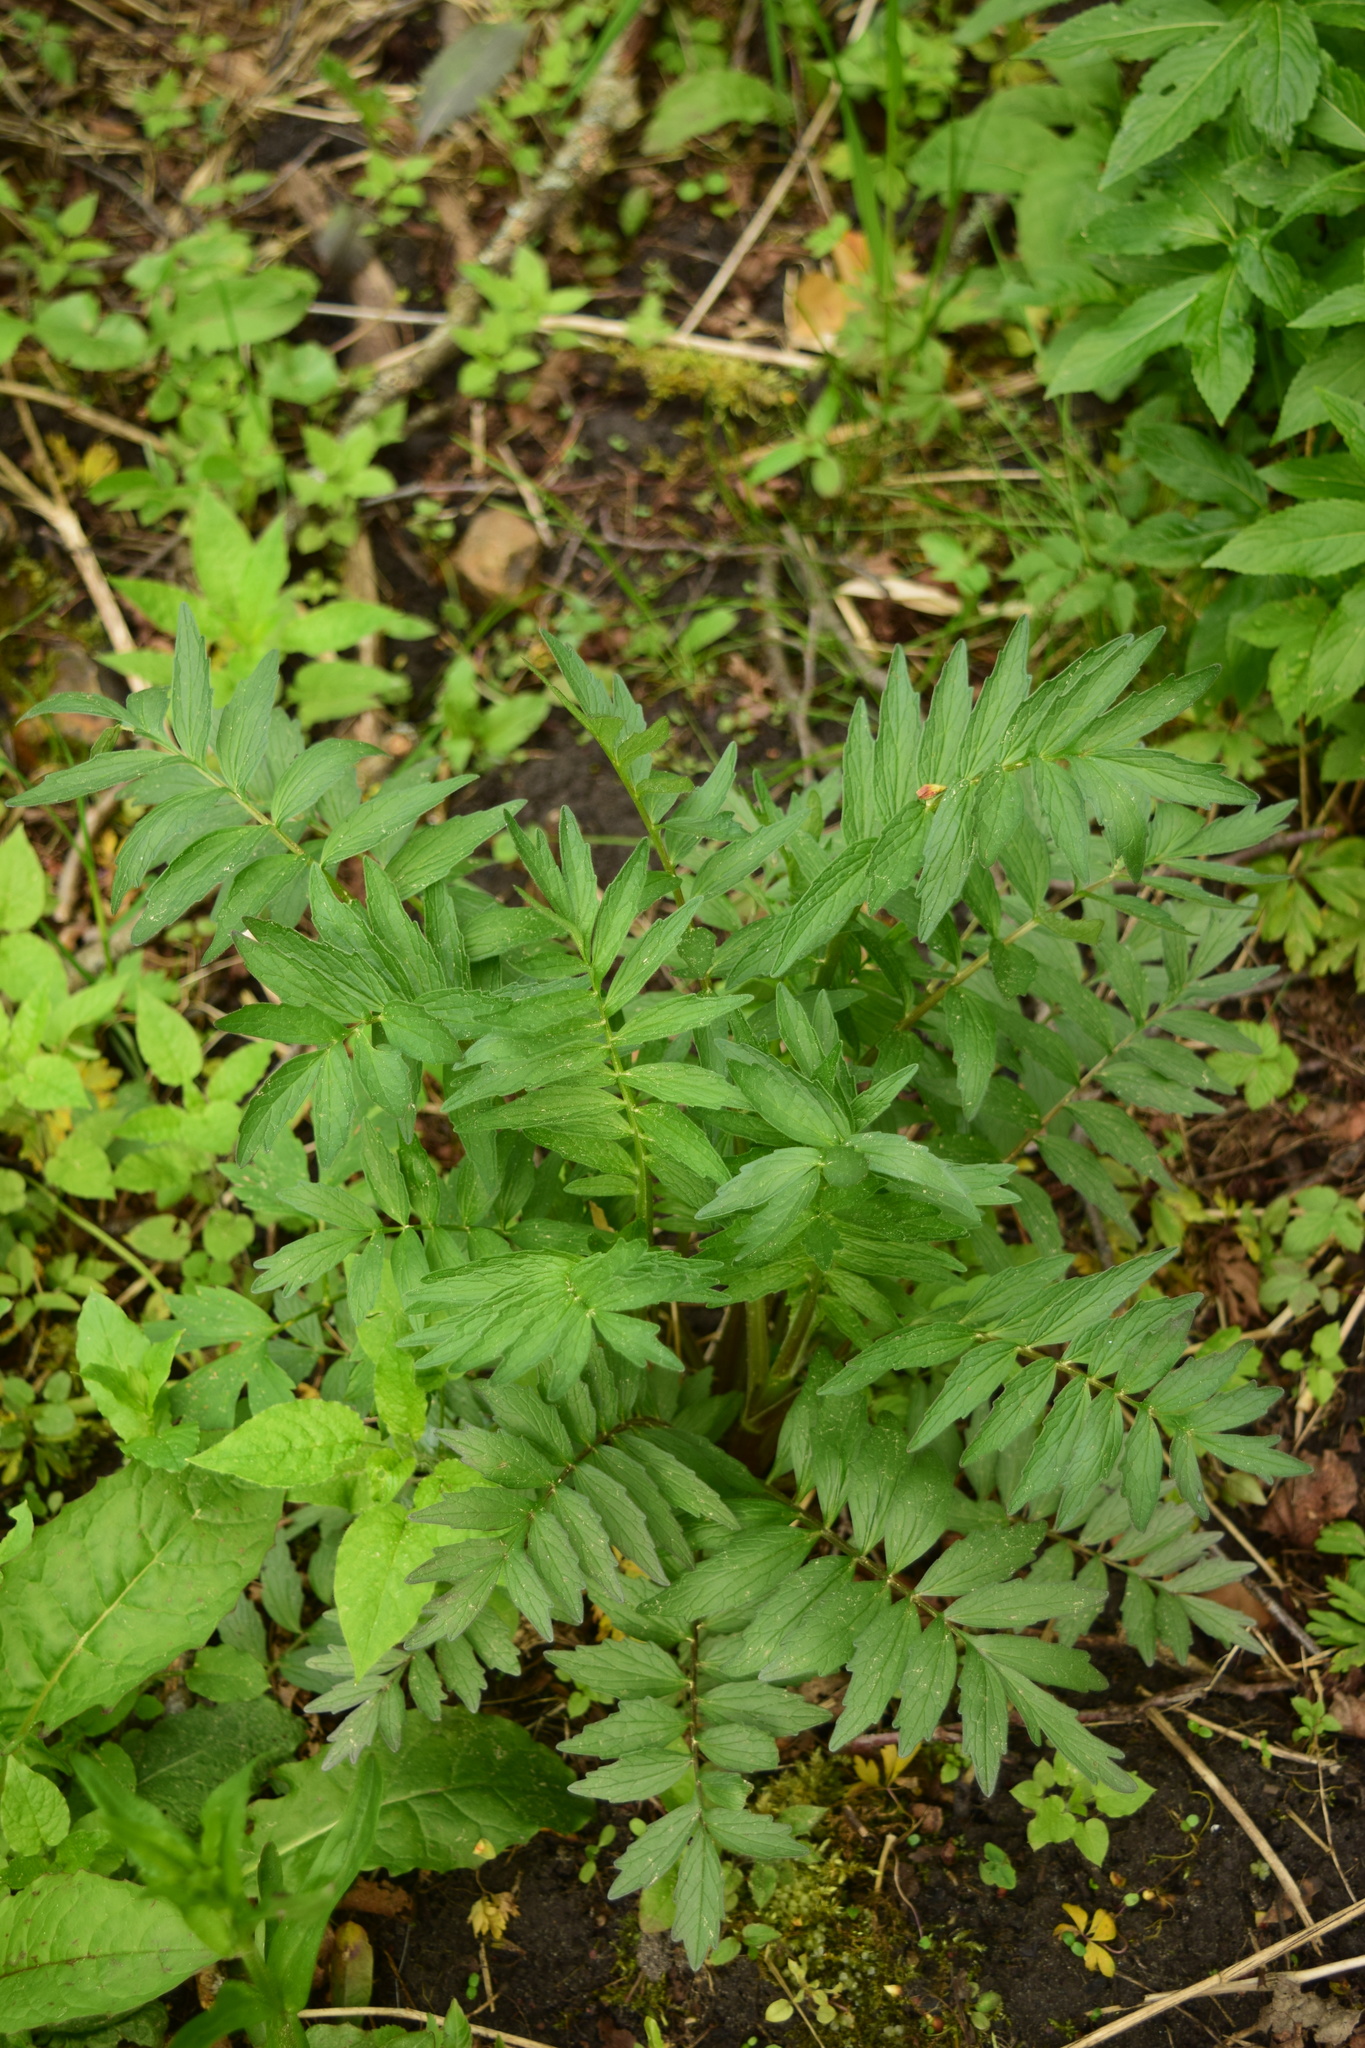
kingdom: Plantae
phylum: Tracheophyta
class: Magnoliopsida
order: Dipsacales
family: Caprifoliaceae
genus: Valeriana
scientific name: Valeriana officinalis
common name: Common valerian
